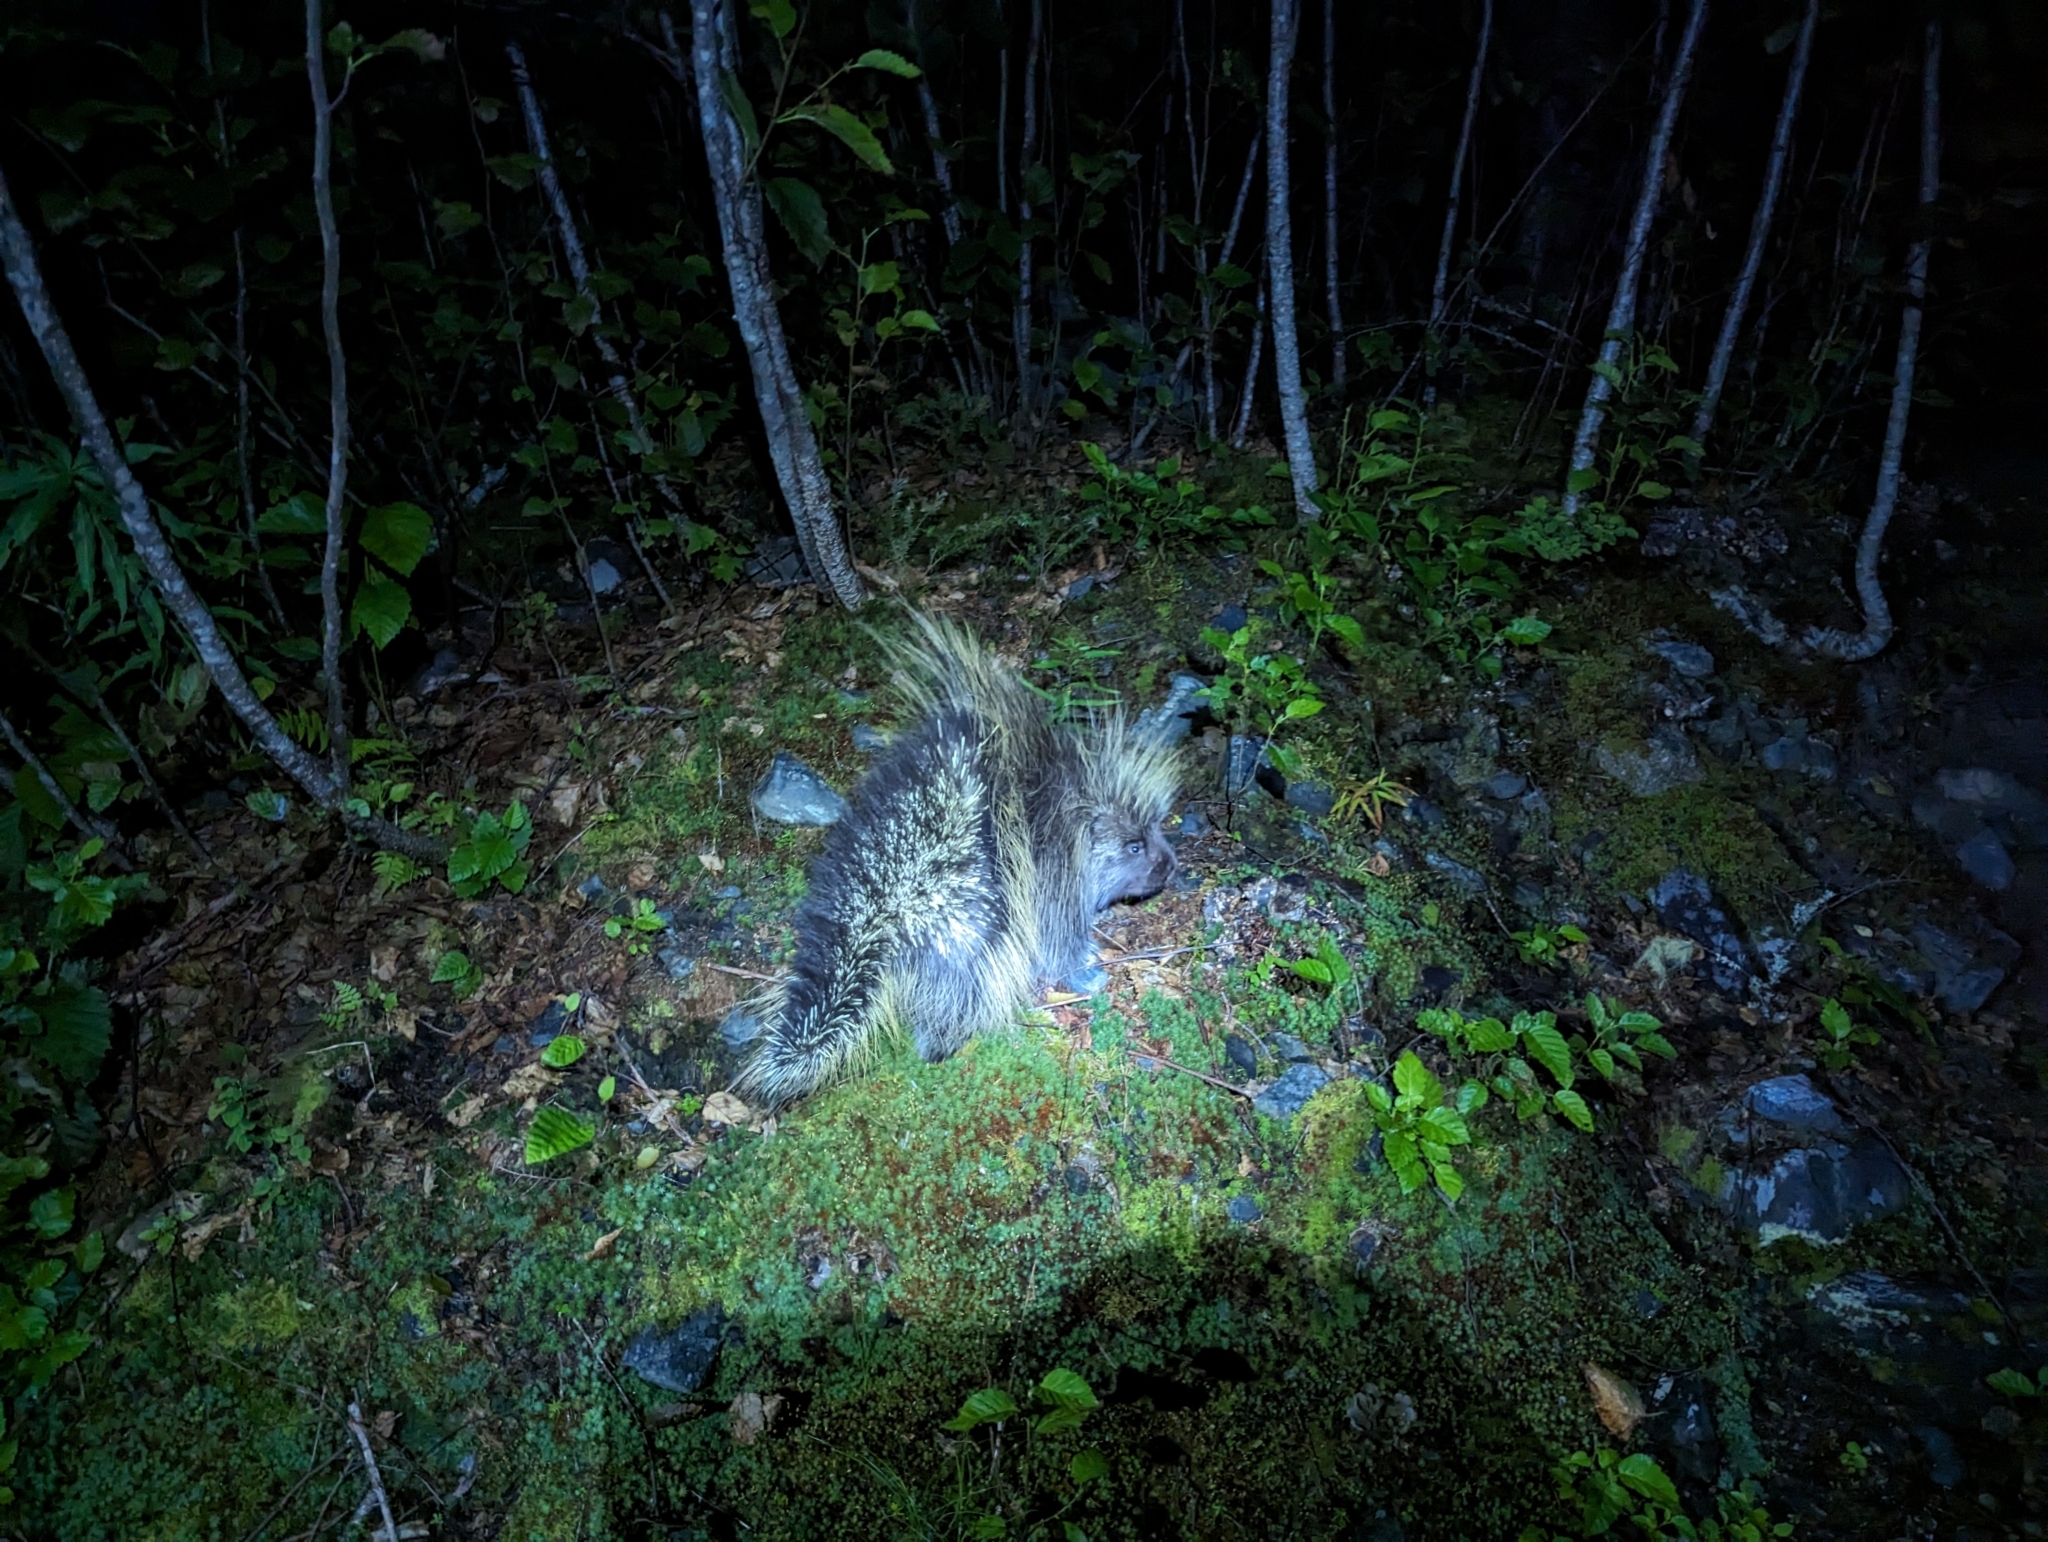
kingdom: Animalia
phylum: Chordata
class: Mammalia
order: Rodentia
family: Erethizontidae
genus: Erethizon
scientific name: Erethizon dorsatus
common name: North american porcupine
